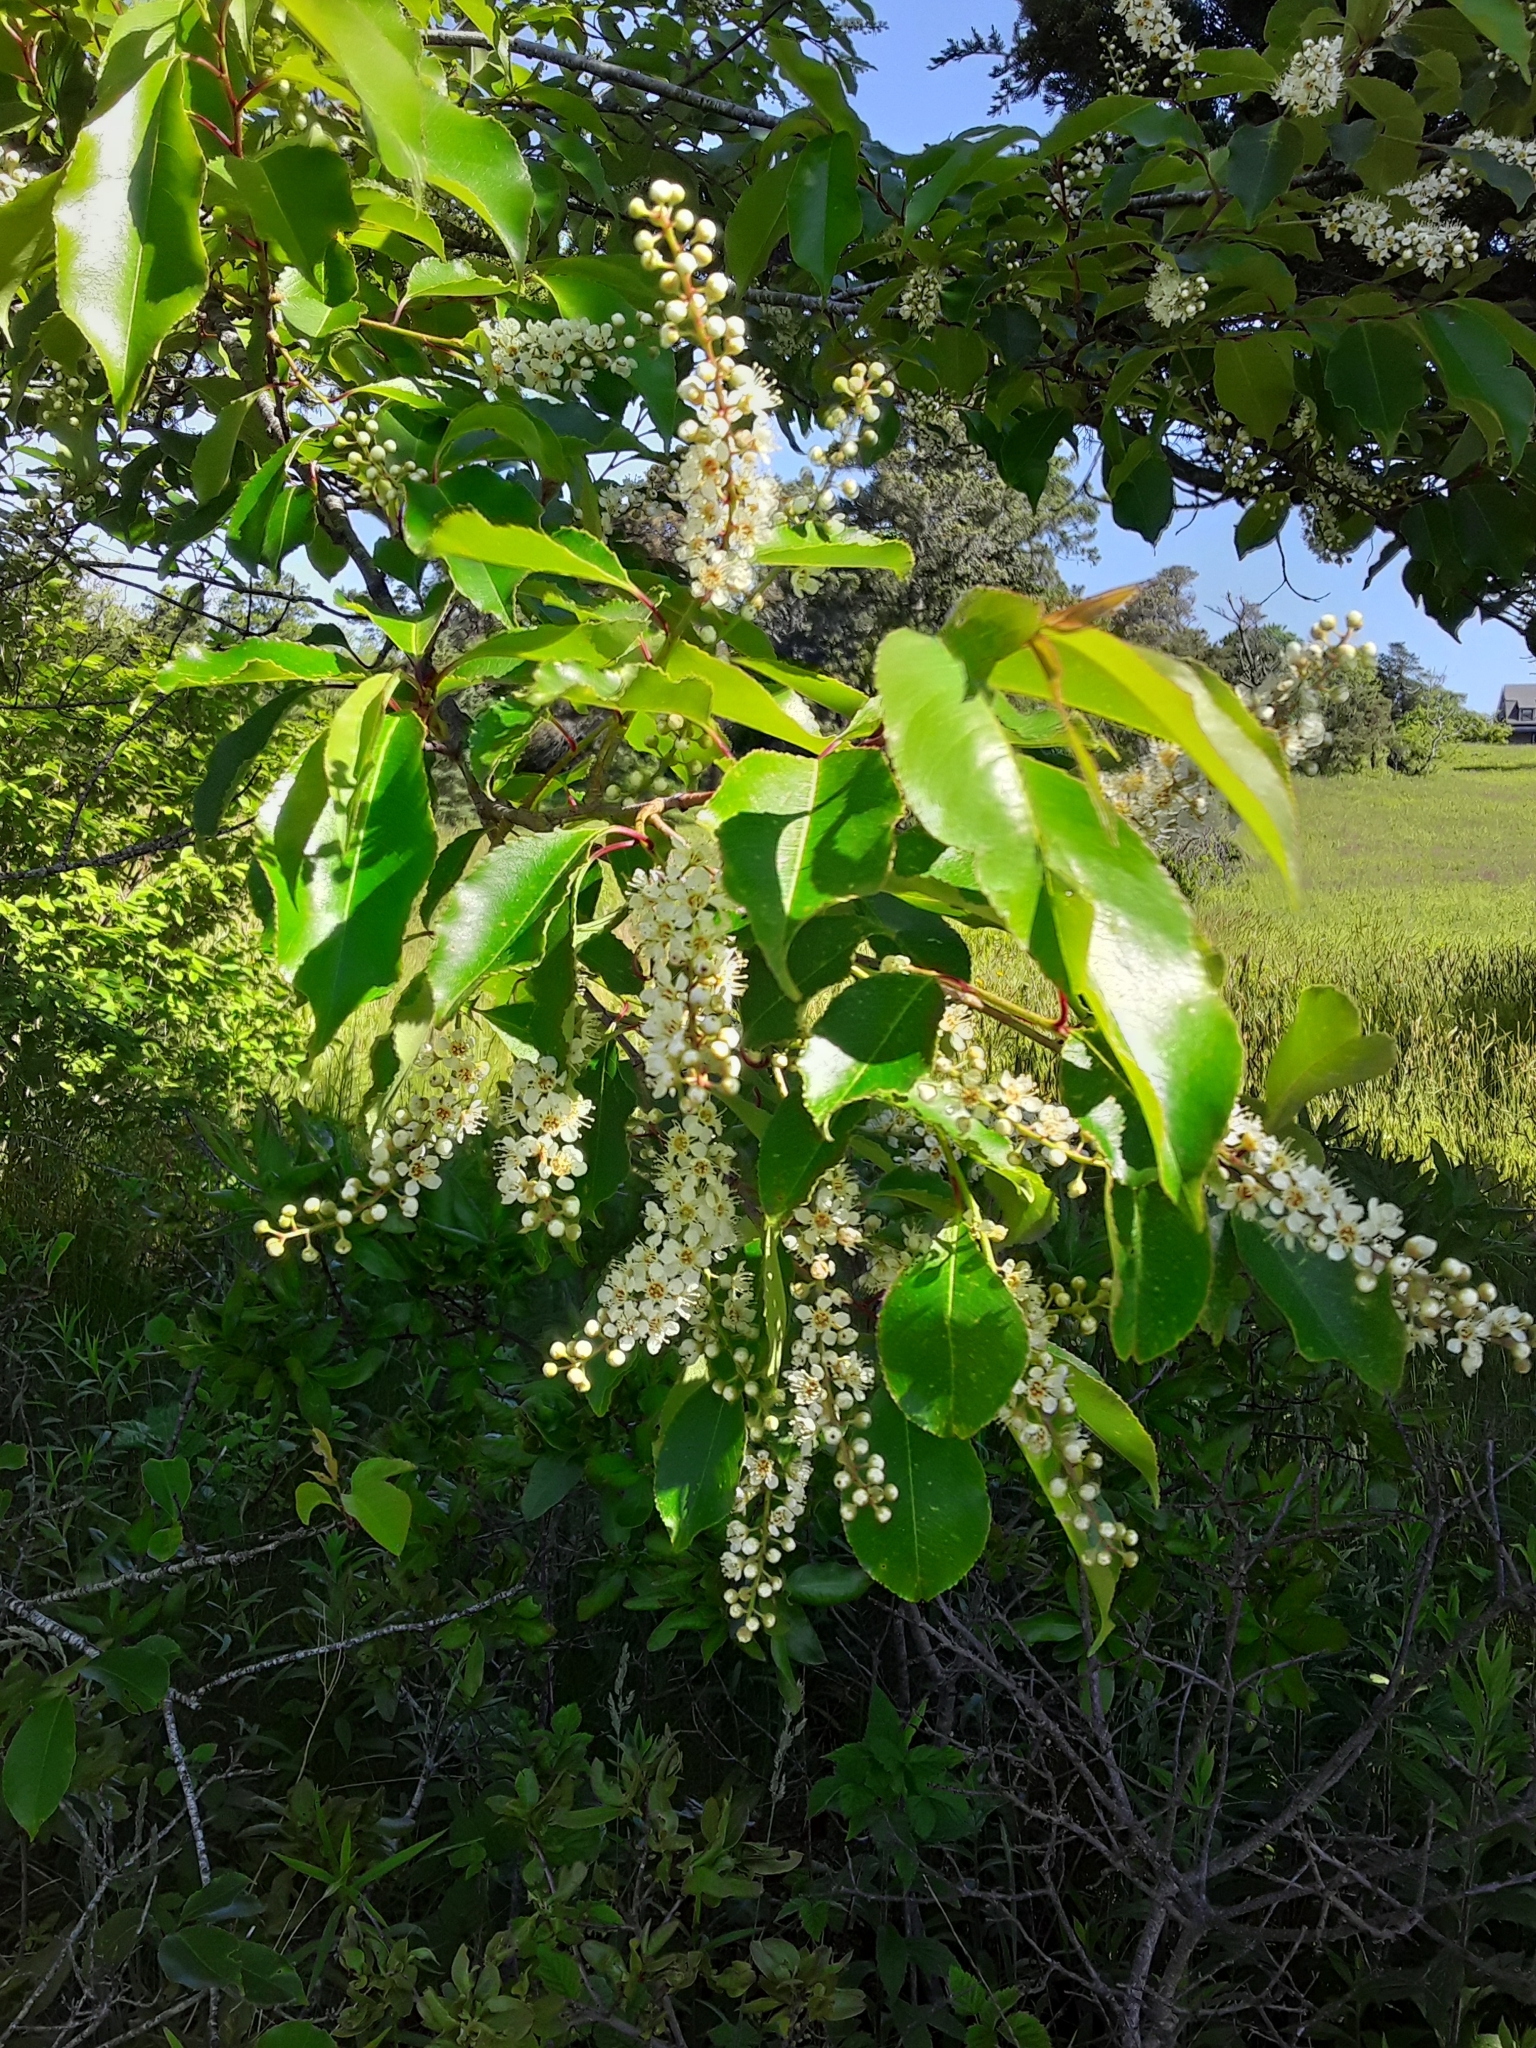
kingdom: Plantae
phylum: Tracheophyta
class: Magnoliopsida
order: Rosales
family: Rosaceae
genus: Prunus
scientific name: Prunus serotina
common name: Black cherry
